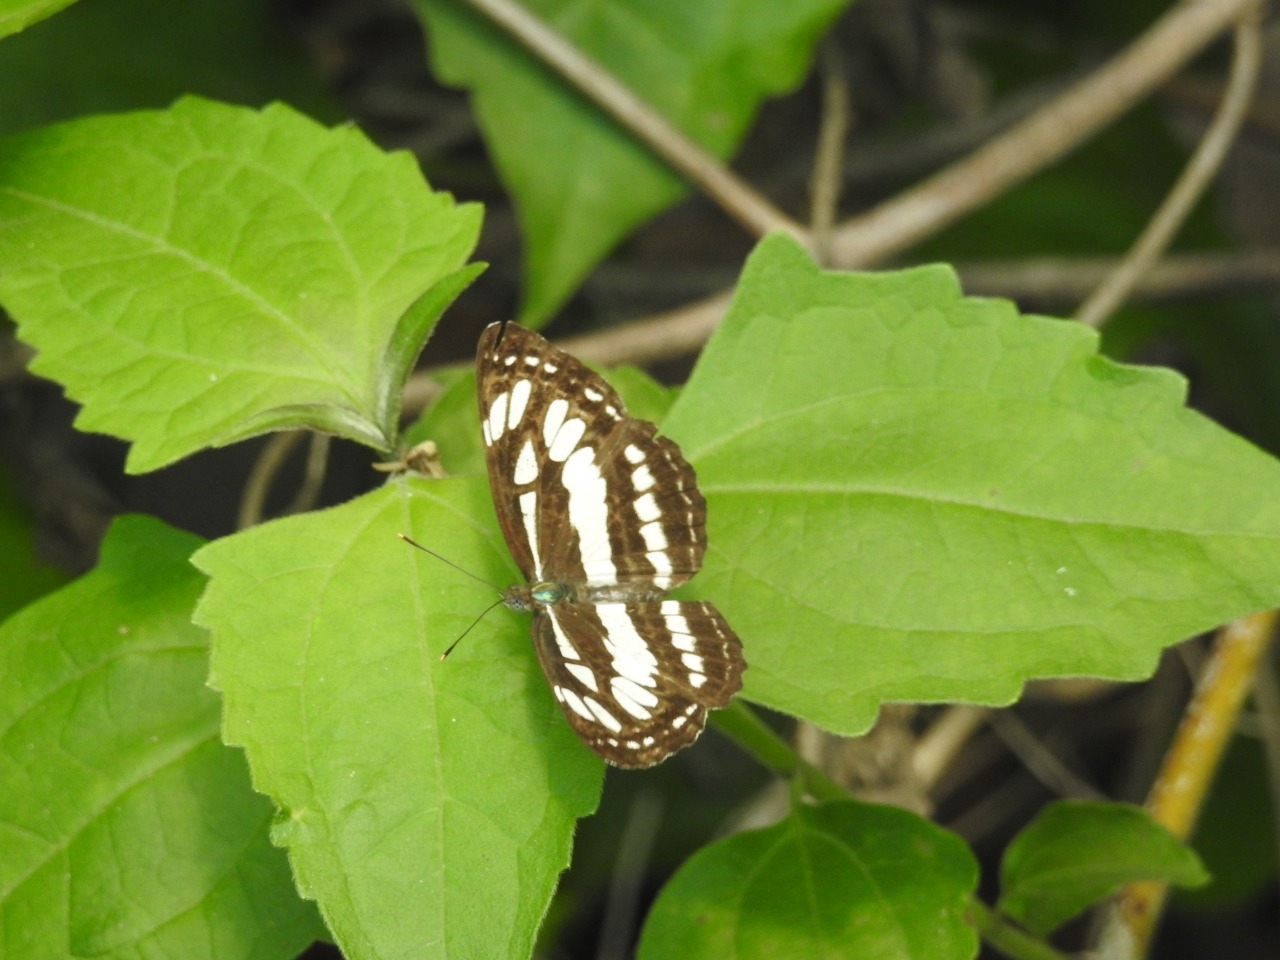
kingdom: Animalia
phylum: Arthropoda
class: Insecta
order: Lepidoptera
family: Nymphalidae
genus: Neptis
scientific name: Neptis hylas
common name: Common sailer
